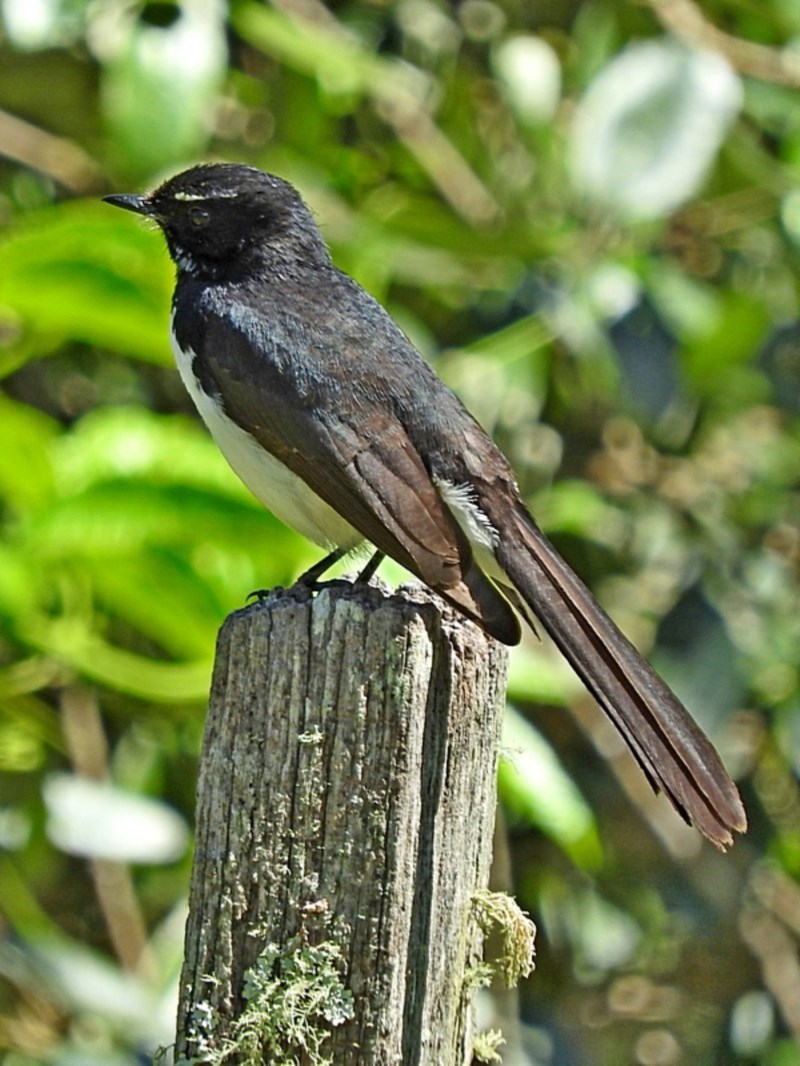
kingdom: Animalia
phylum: Chordata
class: Aves
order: Passeriformes
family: Rhipiduridae
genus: Rhipidura
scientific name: Rhipidura leucophrys
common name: Willie wagtail
